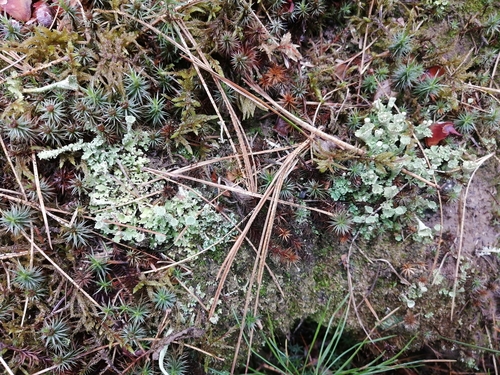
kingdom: Fungi
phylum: Ascomycota
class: Lecanoromycetes
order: Lecanorales
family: Cladoniaceae
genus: Cladonia
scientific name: Cladonia
